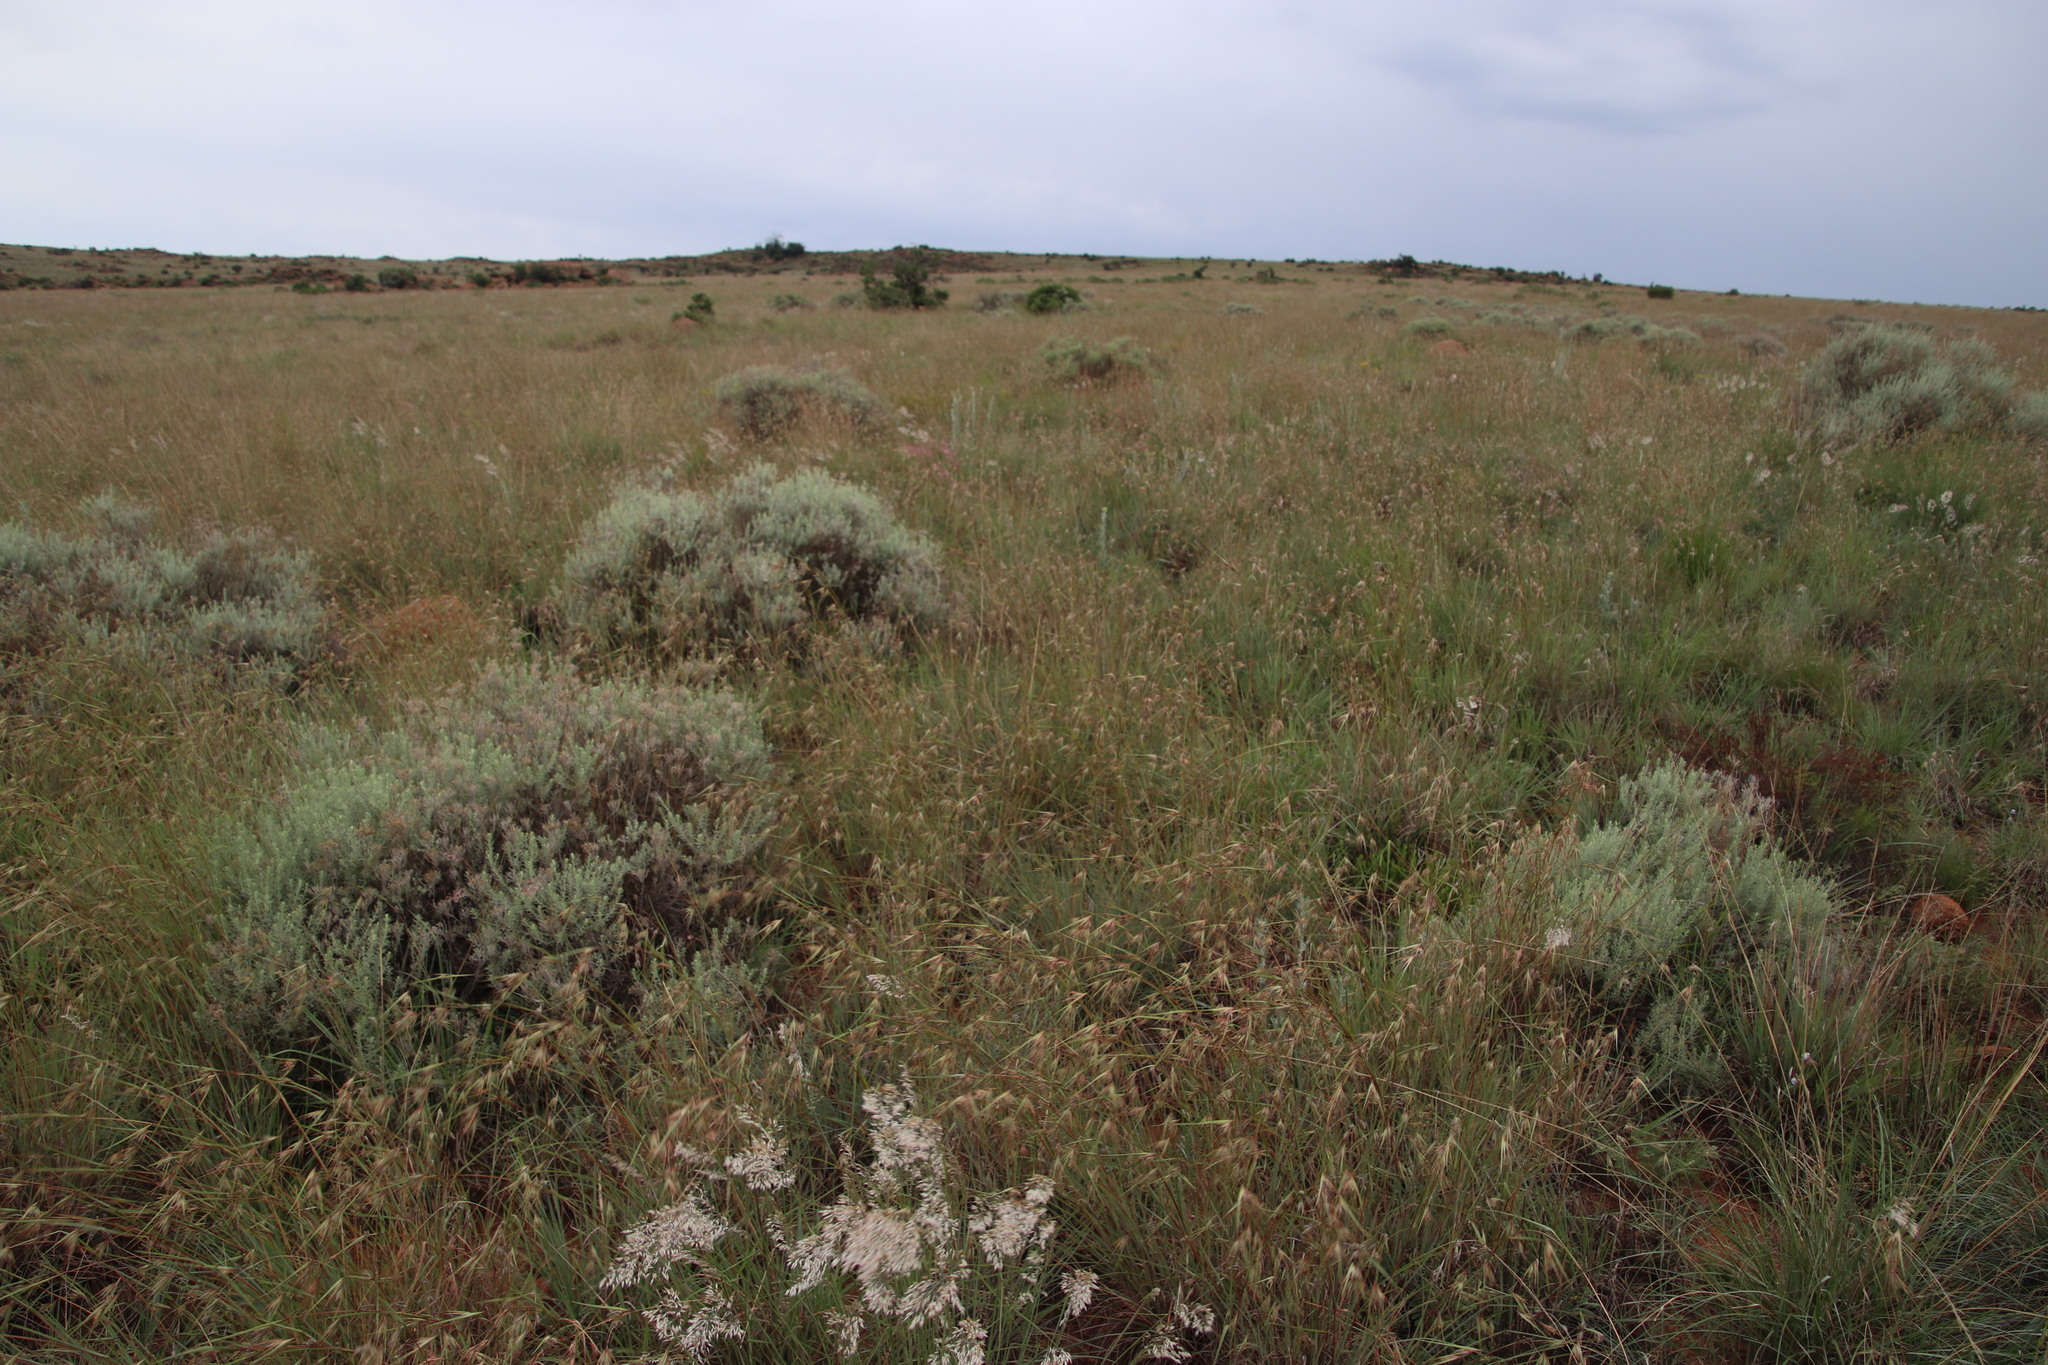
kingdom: Plantae
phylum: Tracheophyta
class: Liliopsida
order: Poales
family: Poaceae
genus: Themeda
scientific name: Themeda triandra
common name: Kangaroo grass
